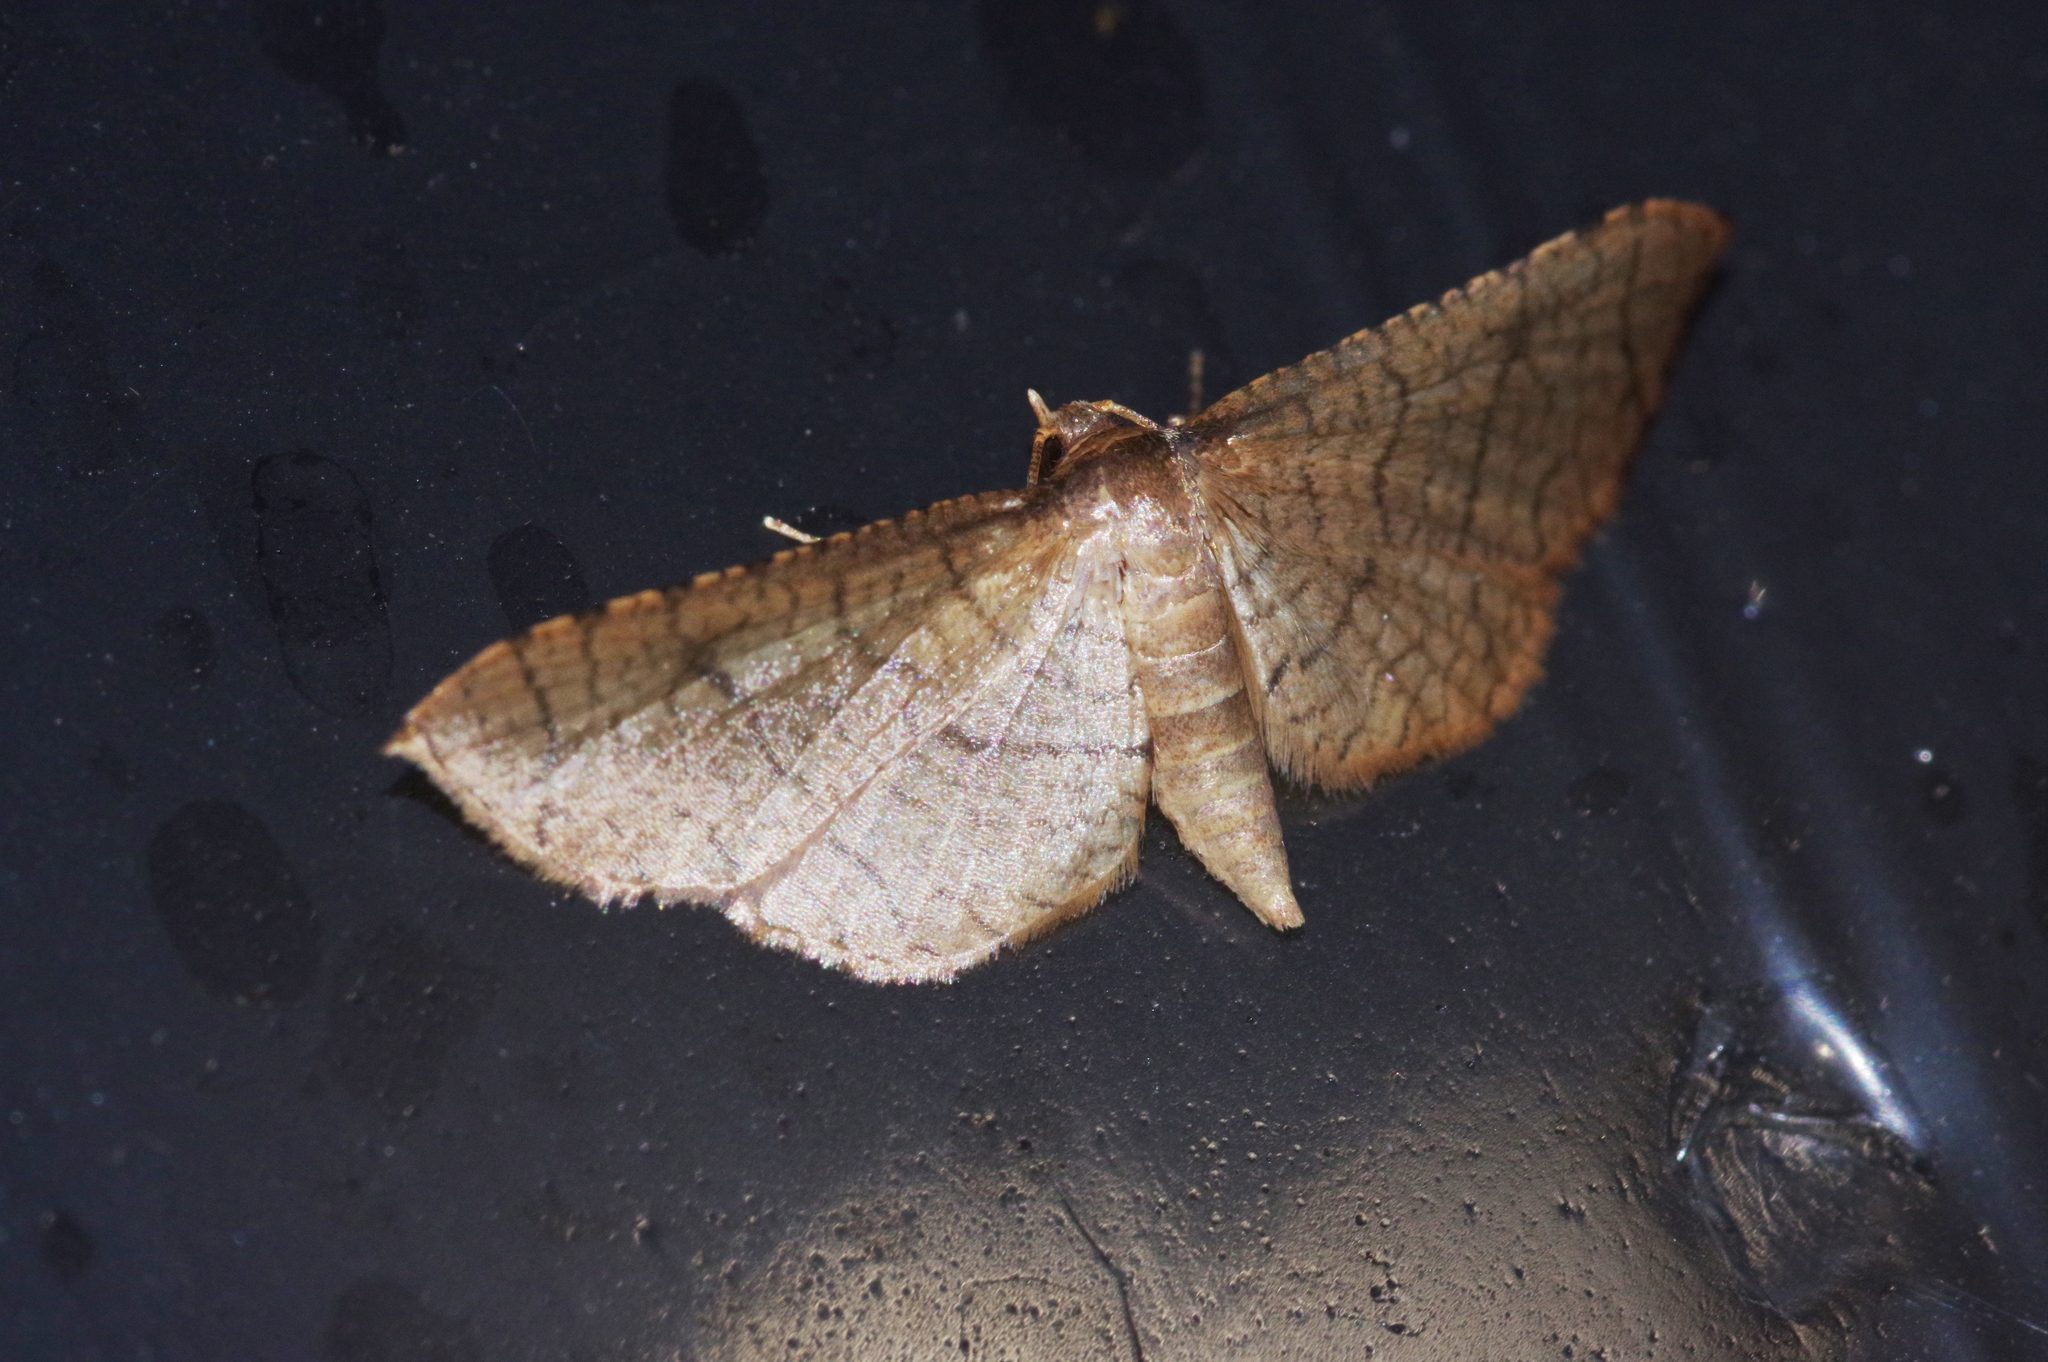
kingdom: Animalia
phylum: Arthropoda
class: Insecta
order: Lepidoptera
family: Thyrididae
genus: Hypolamprus
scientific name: Hypolamprus ypsilon
